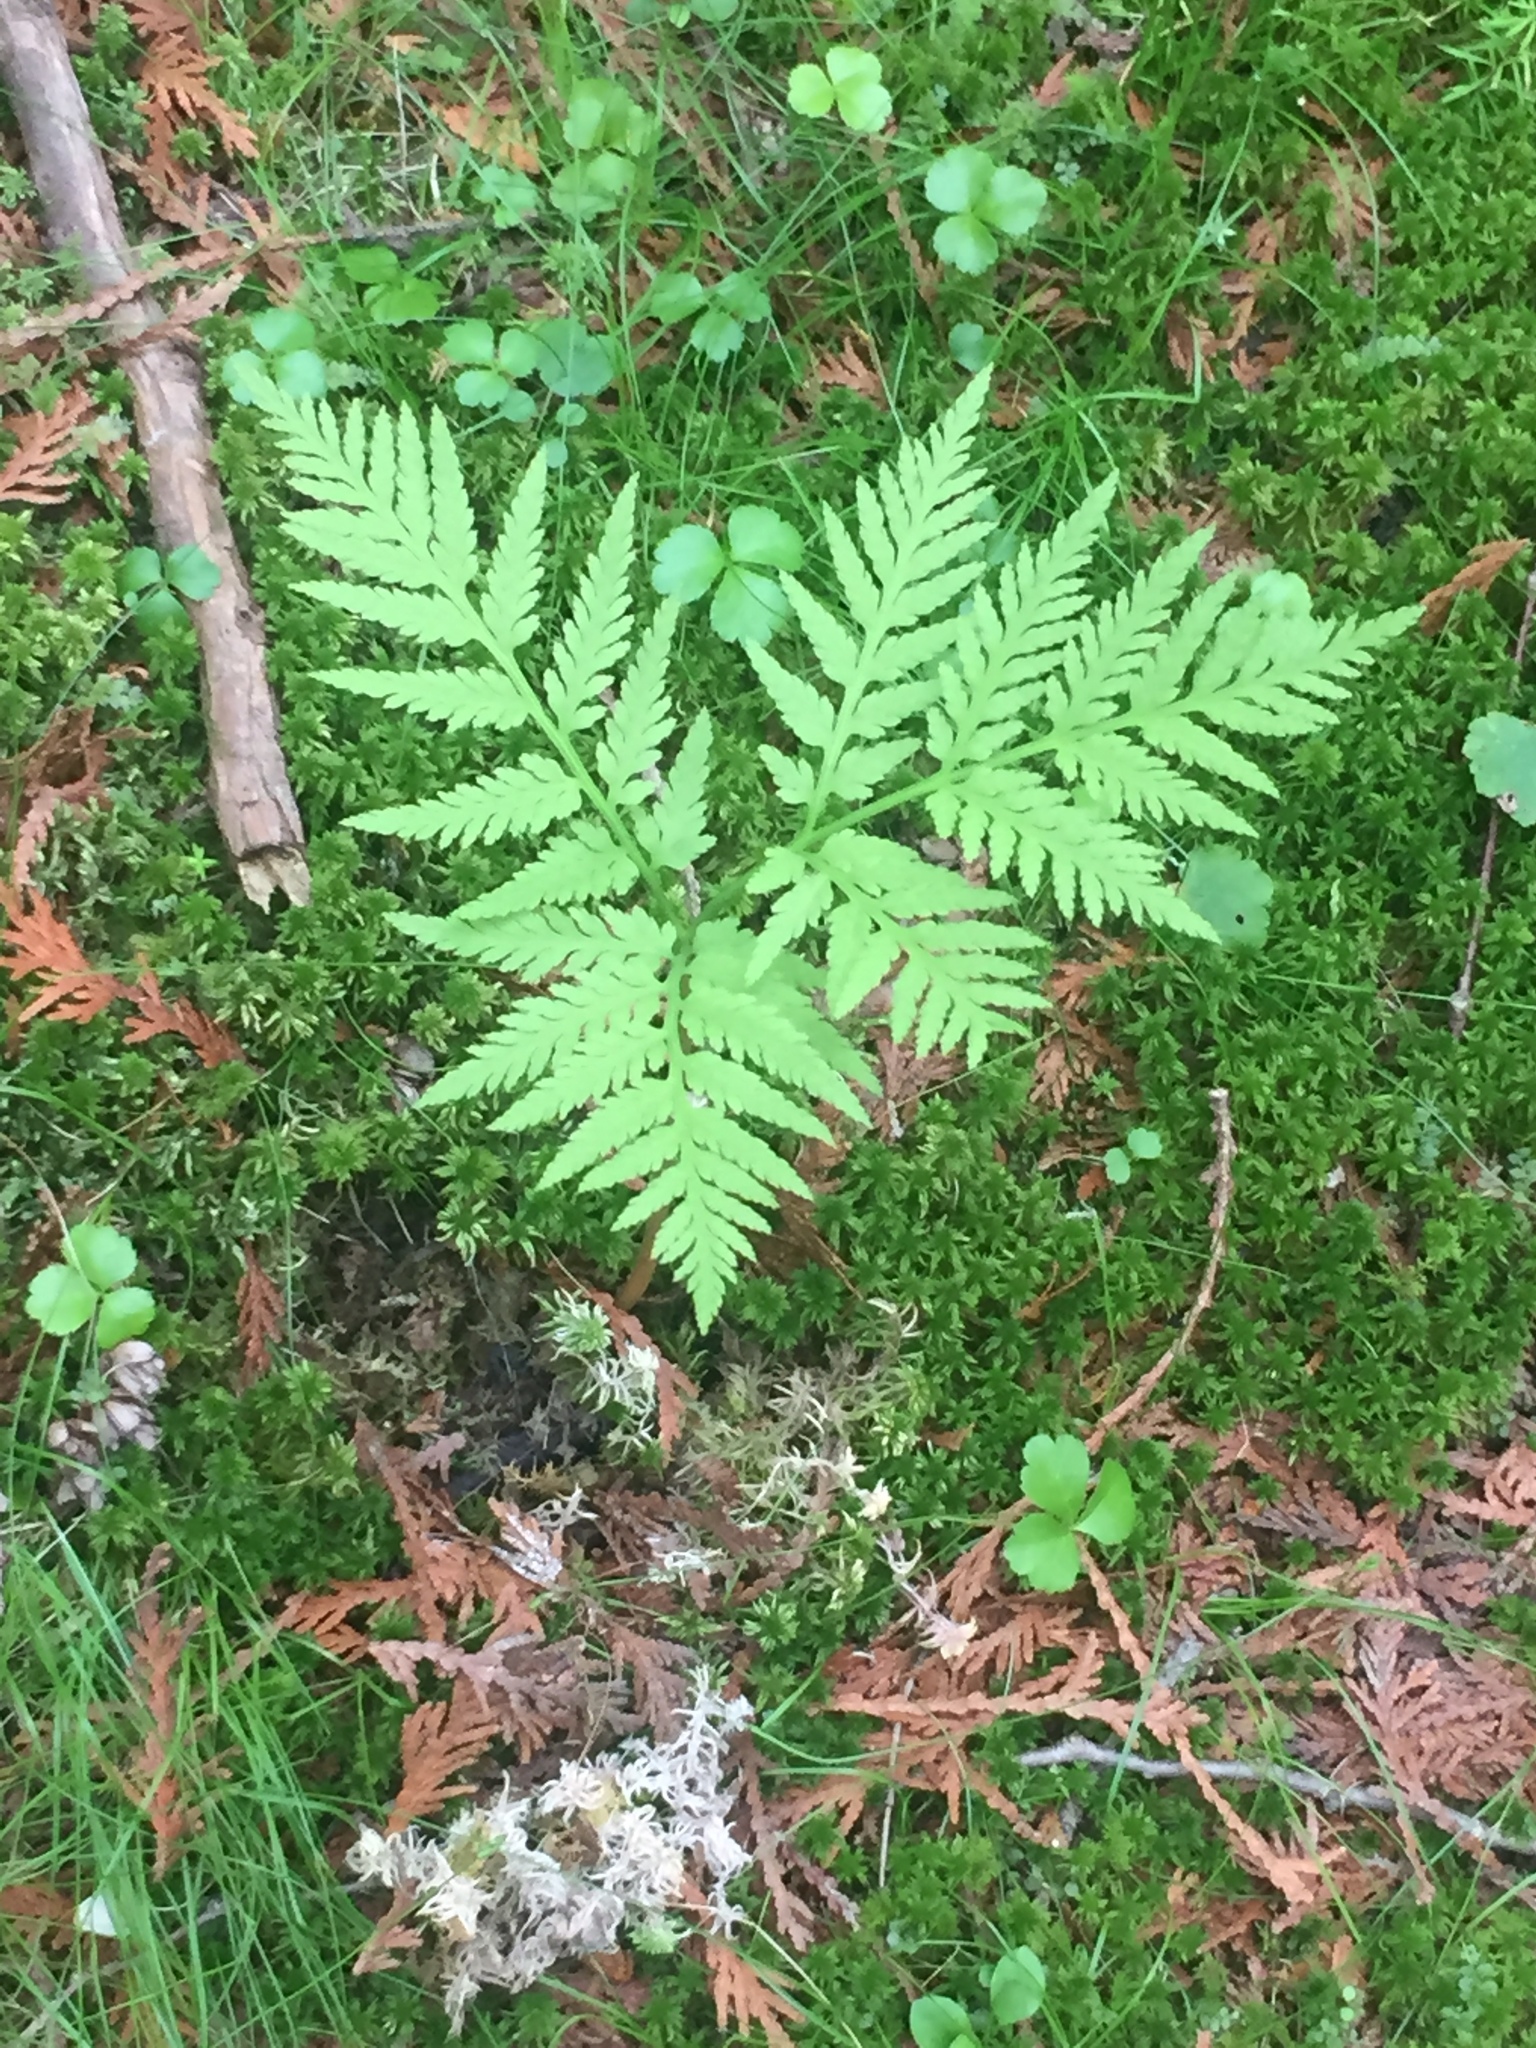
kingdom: Plantae
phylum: Tracheophyta
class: Polypodiopsida
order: Ophioglossales
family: Ophioglossaceae
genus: Botrypus
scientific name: Botrypus virginianus
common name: Common grapefern
